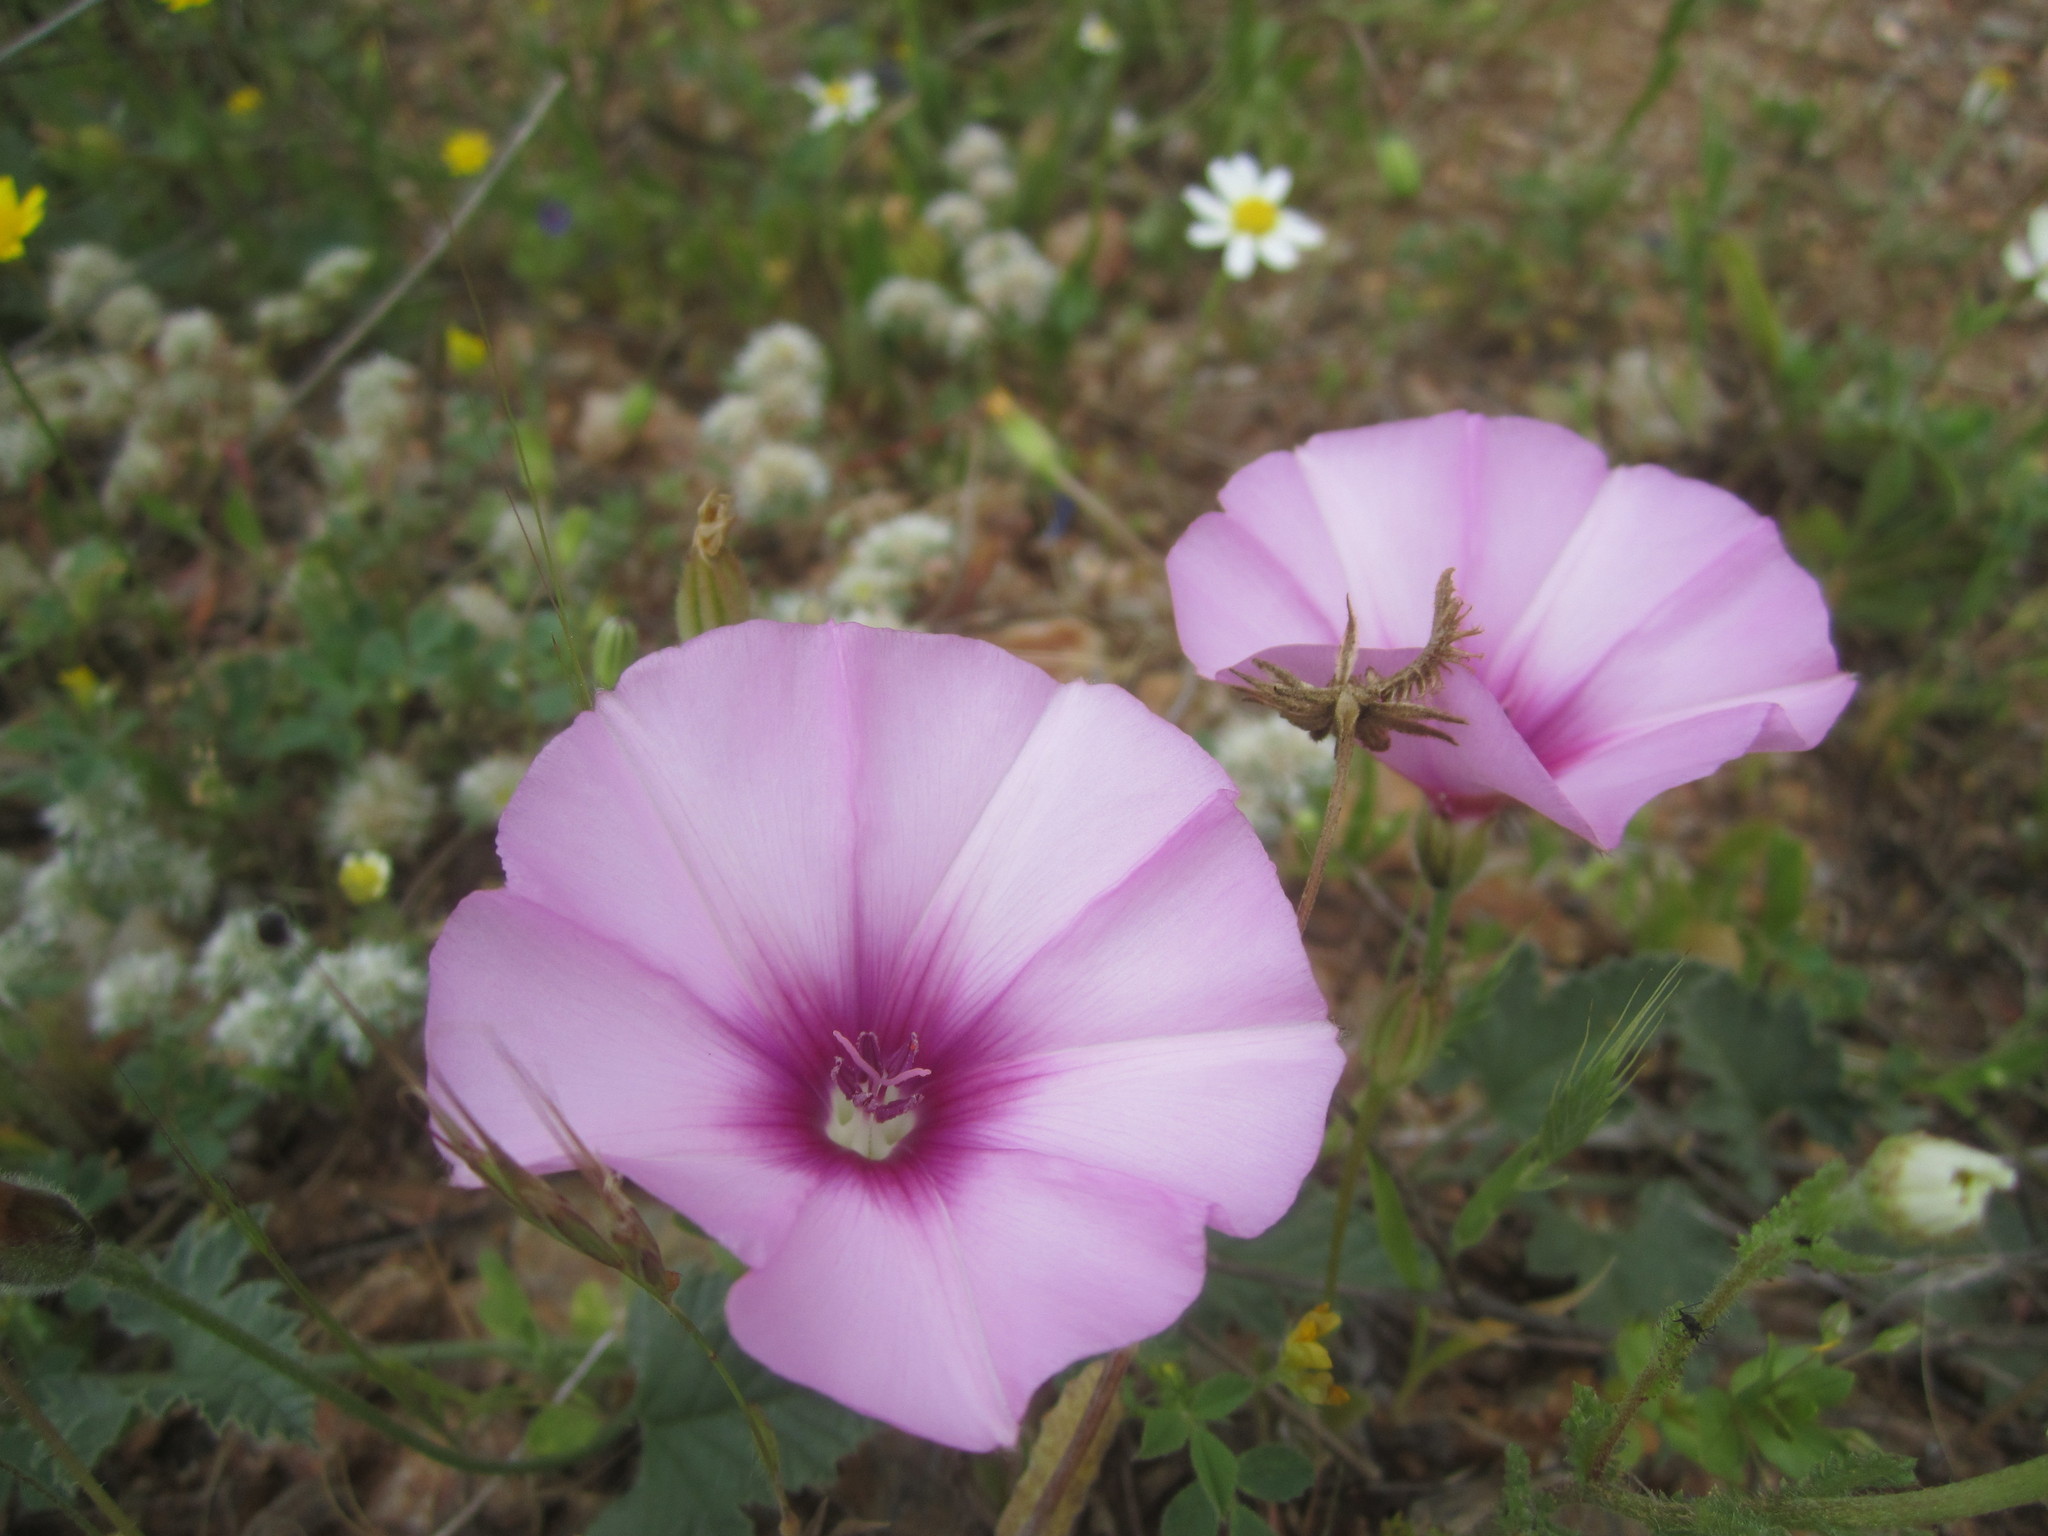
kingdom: Plantae
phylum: Tracheophyta
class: Magnoliopsida
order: Solanales
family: Convolvulaceae
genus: Convolvulus
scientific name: Convolvulus althaeoides
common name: Mallow bindweed
